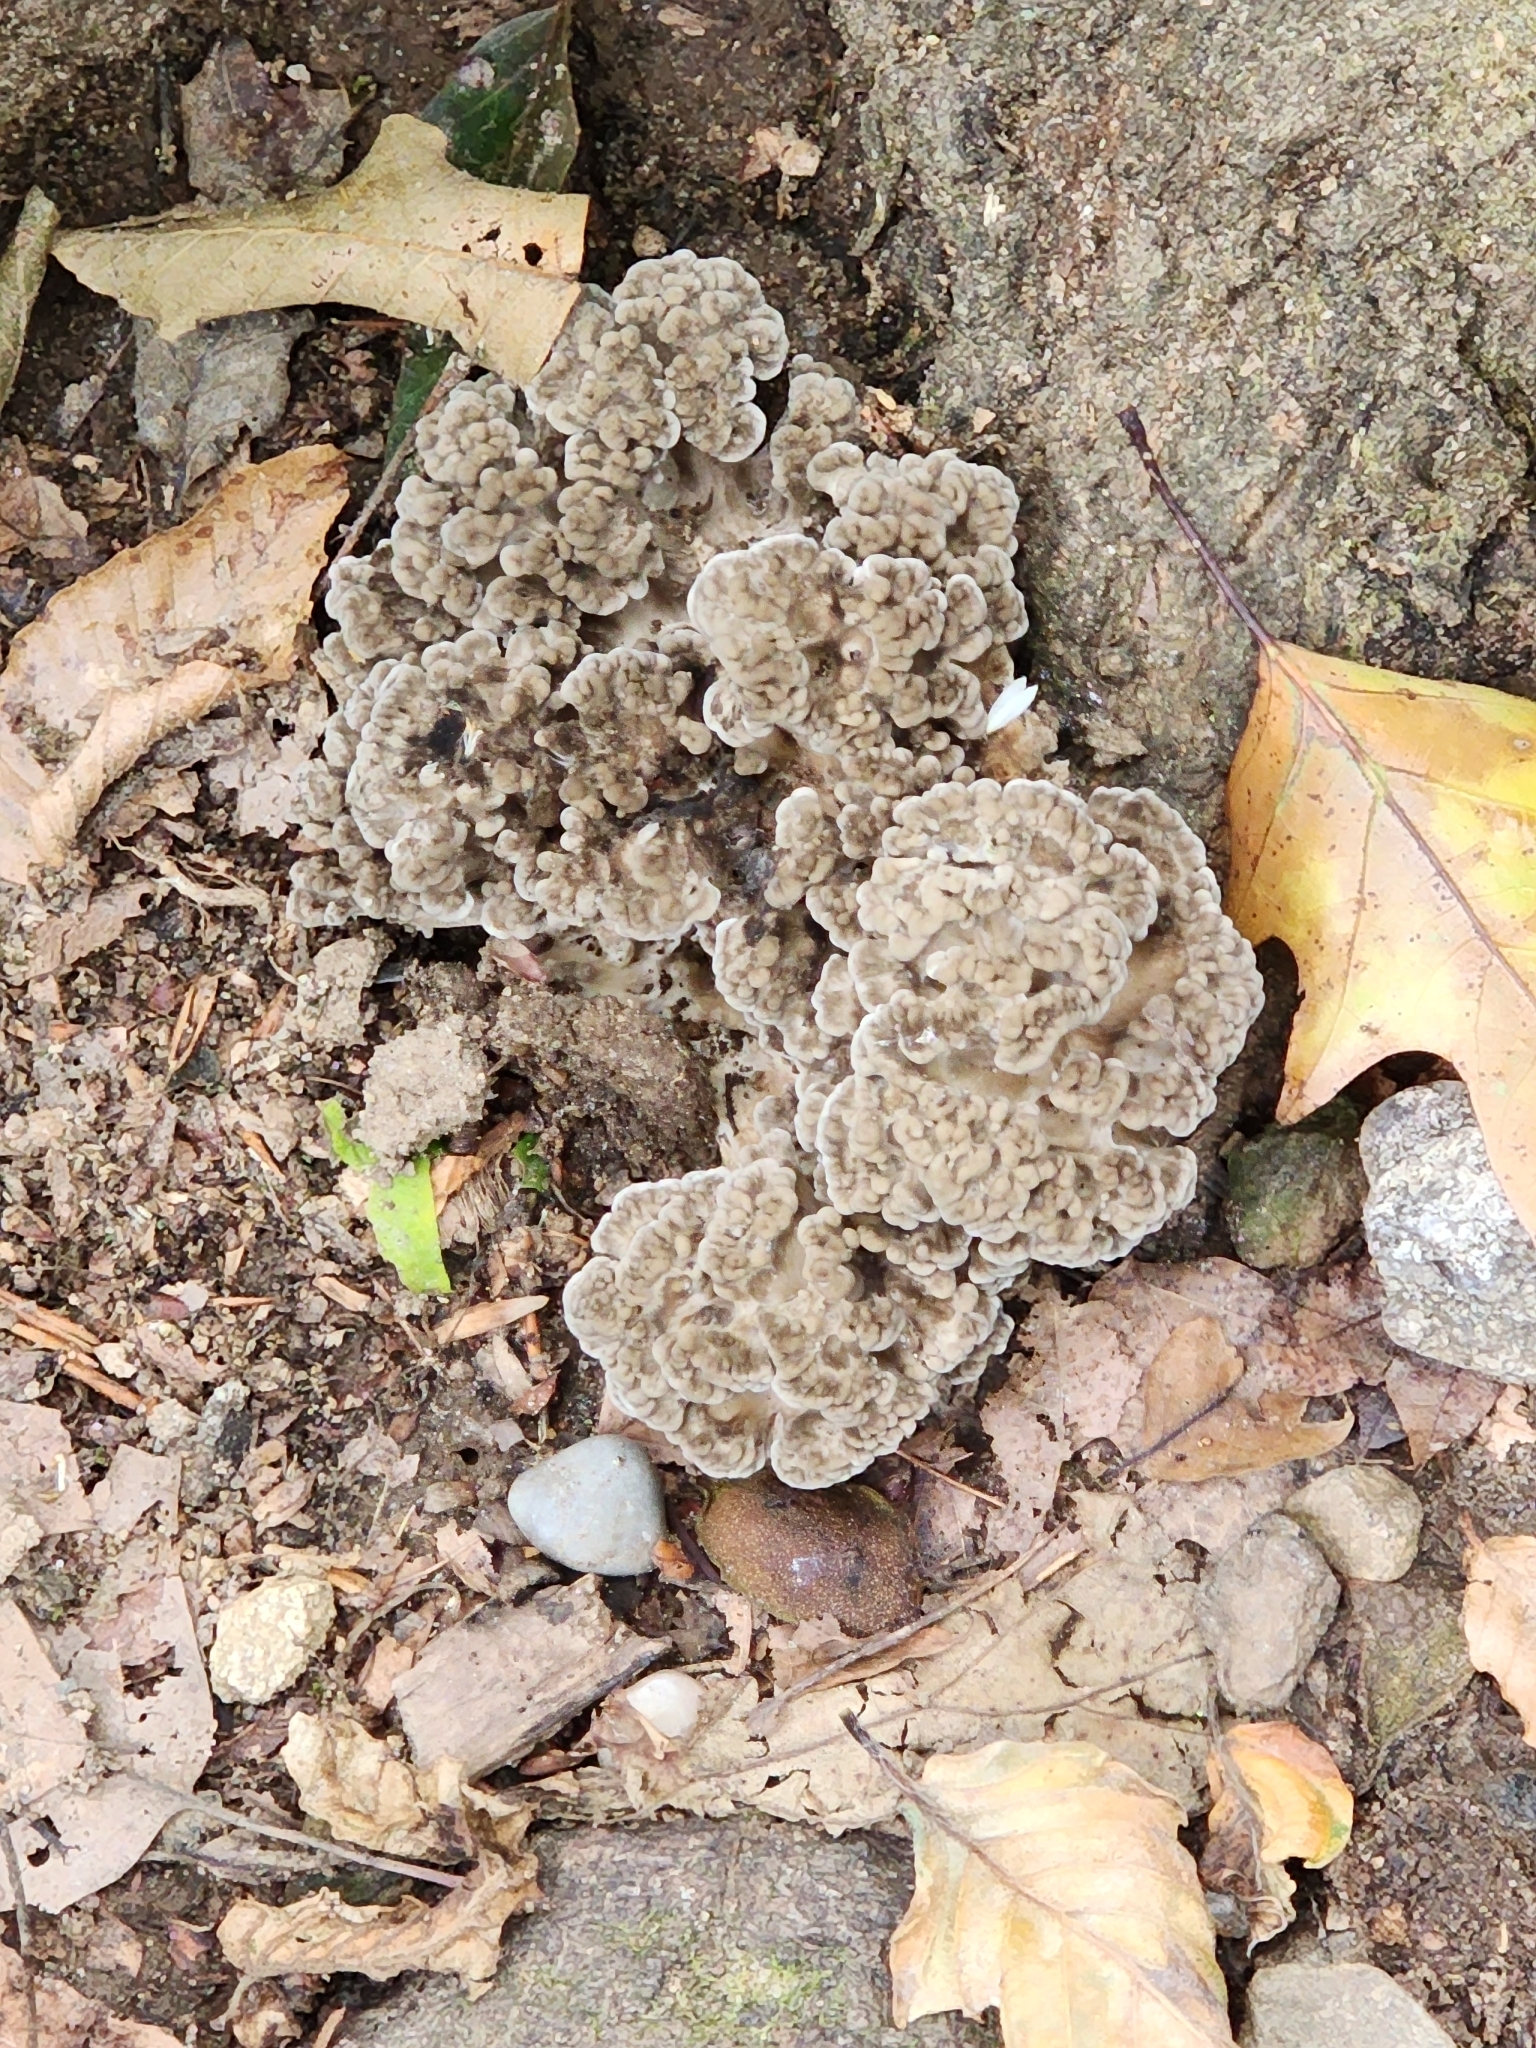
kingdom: Fungi
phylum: Basidiomycota
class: Agaricomycetes
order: Polyporales
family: Grifolaceae
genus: Grifola
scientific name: Grifola frondosa
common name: Hen of the woods
